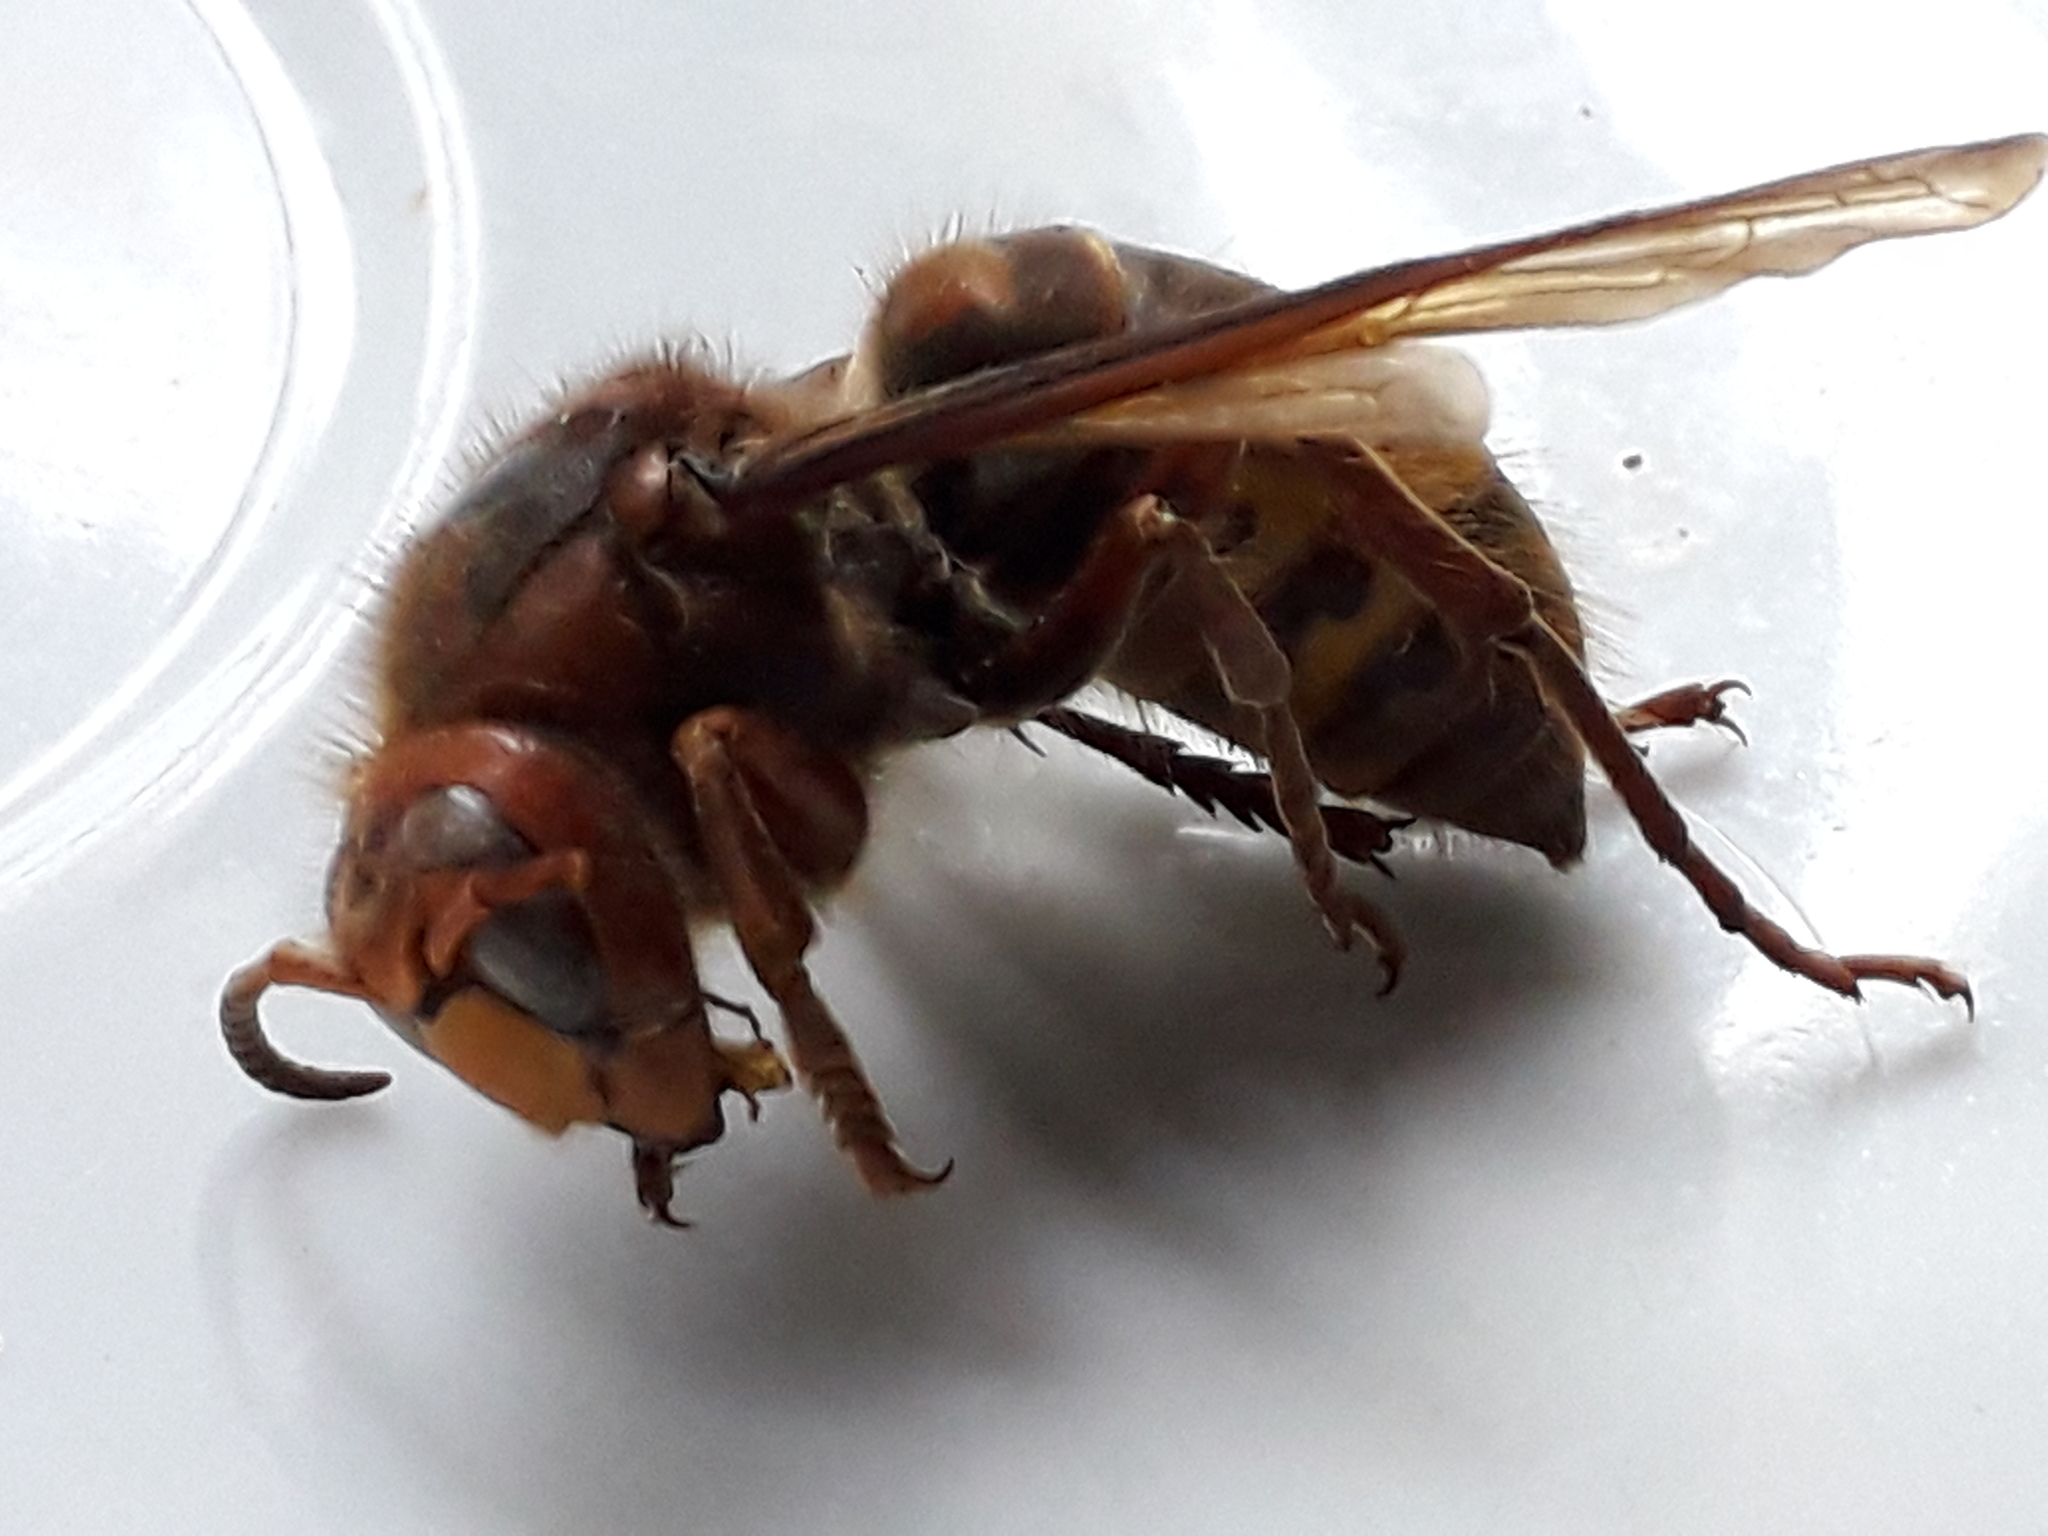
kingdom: Animalia
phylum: Arthropoda
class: Insecta
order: Hymenoptera
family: Vespidae
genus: Vespa
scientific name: Vespa crabro
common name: Hornet
